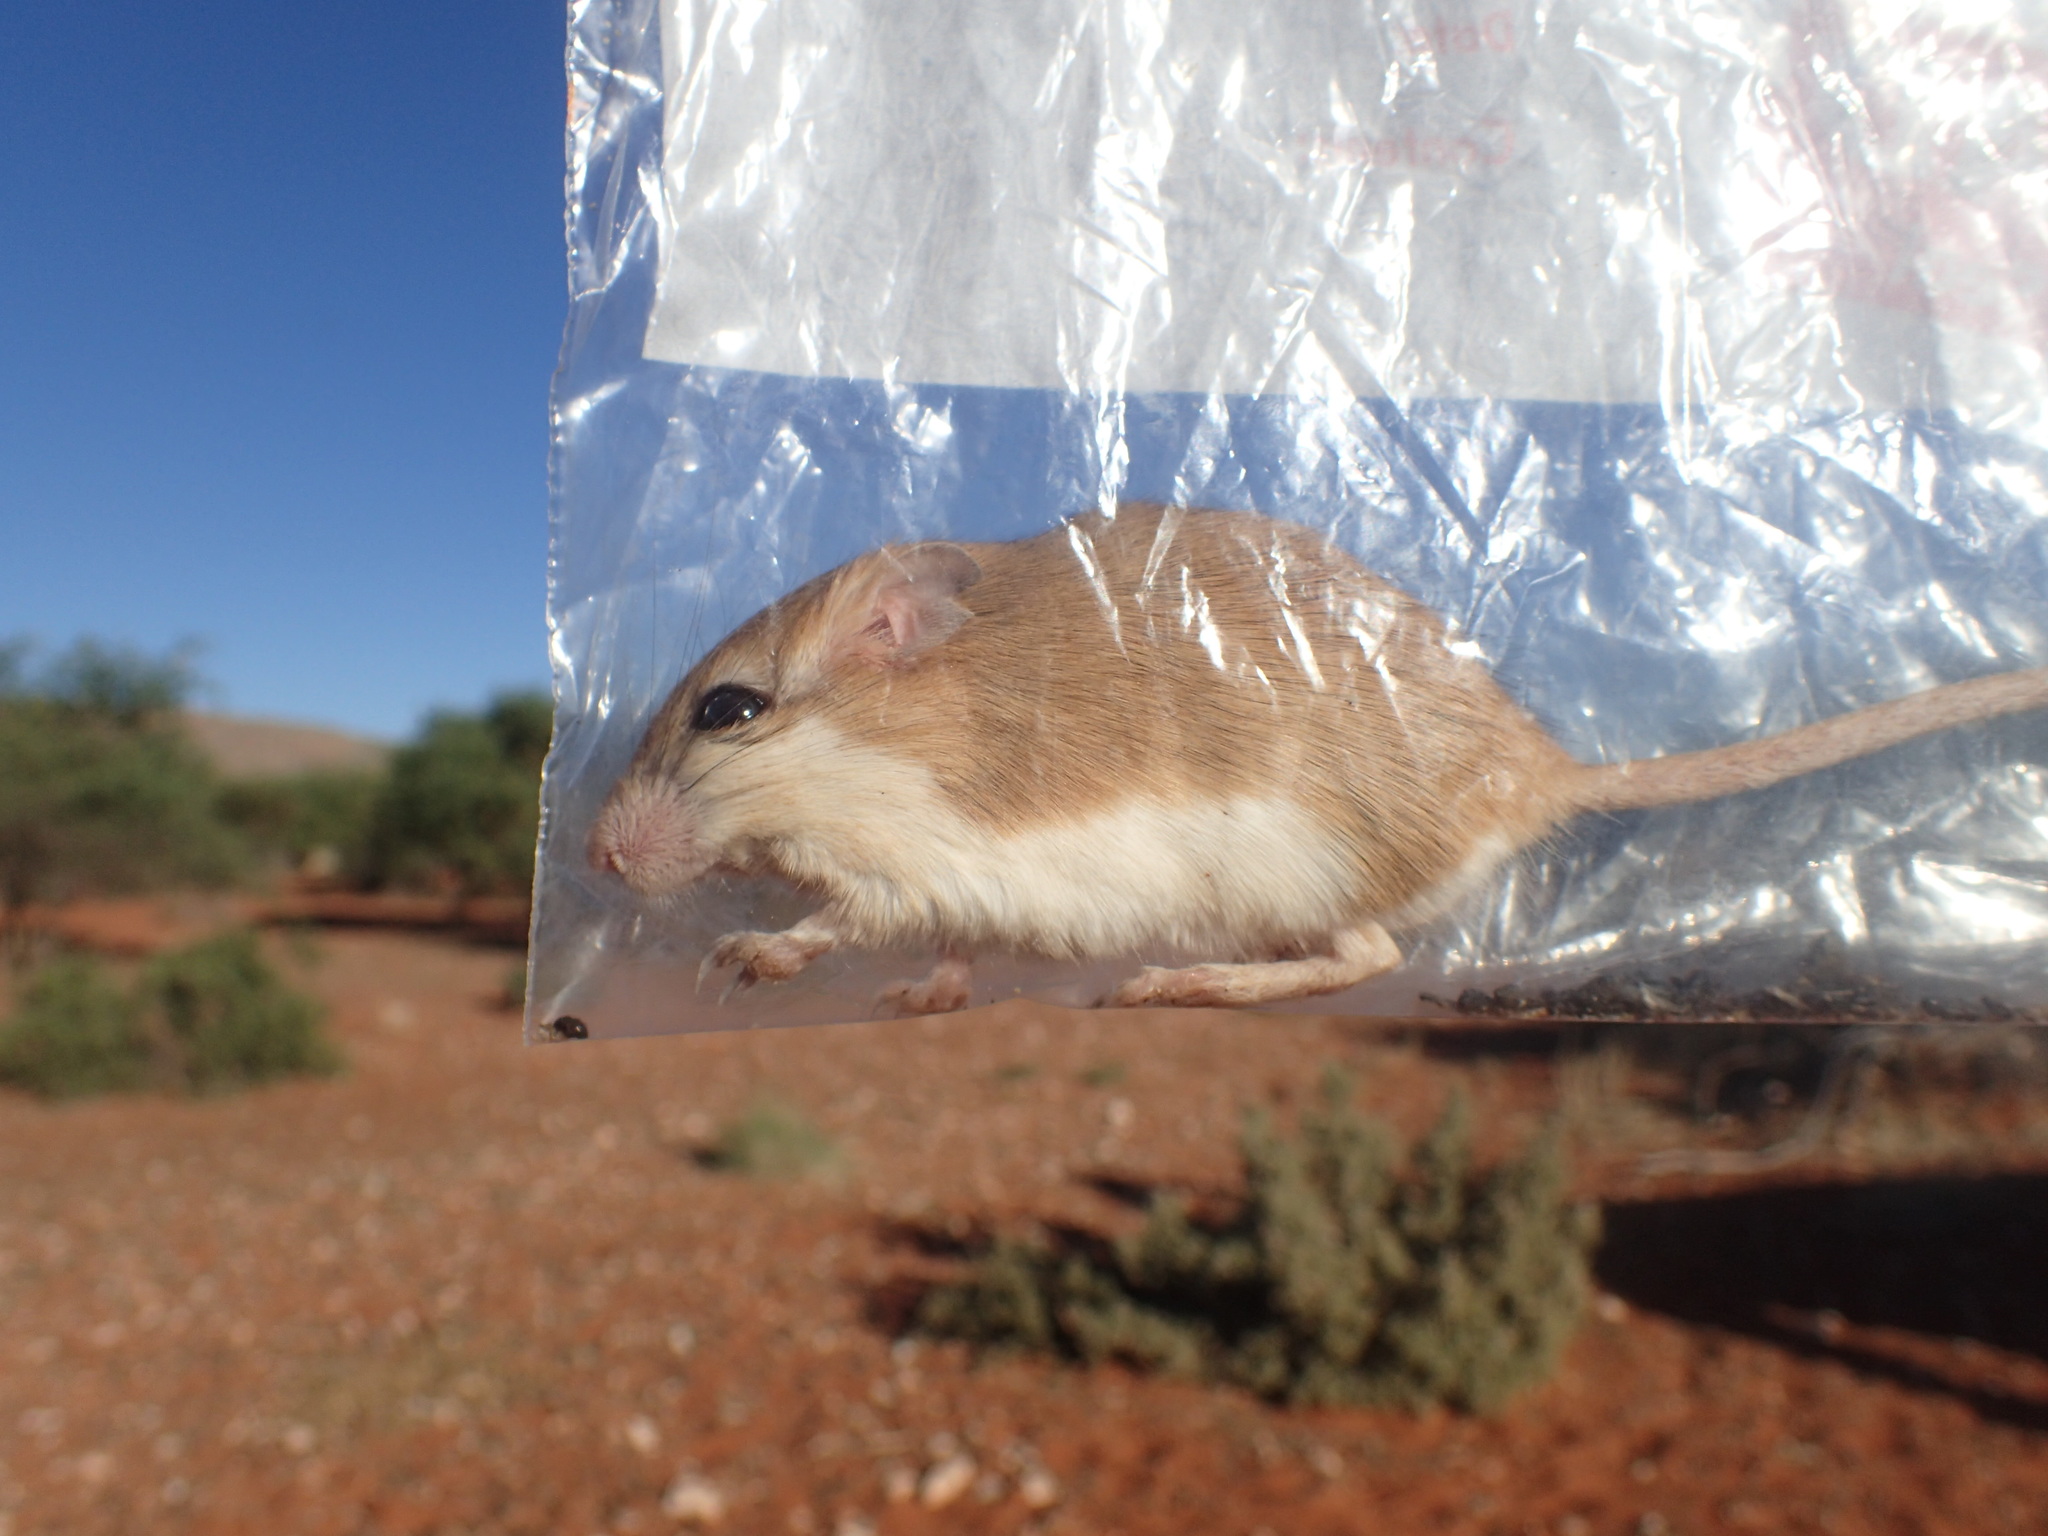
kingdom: Animalia
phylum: Chordata
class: Mammalia
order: Rodentia
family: Muridae
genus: Gerbillurus
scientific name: Gerbillurus paeba
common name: Paeba hairy-footed gerbil
